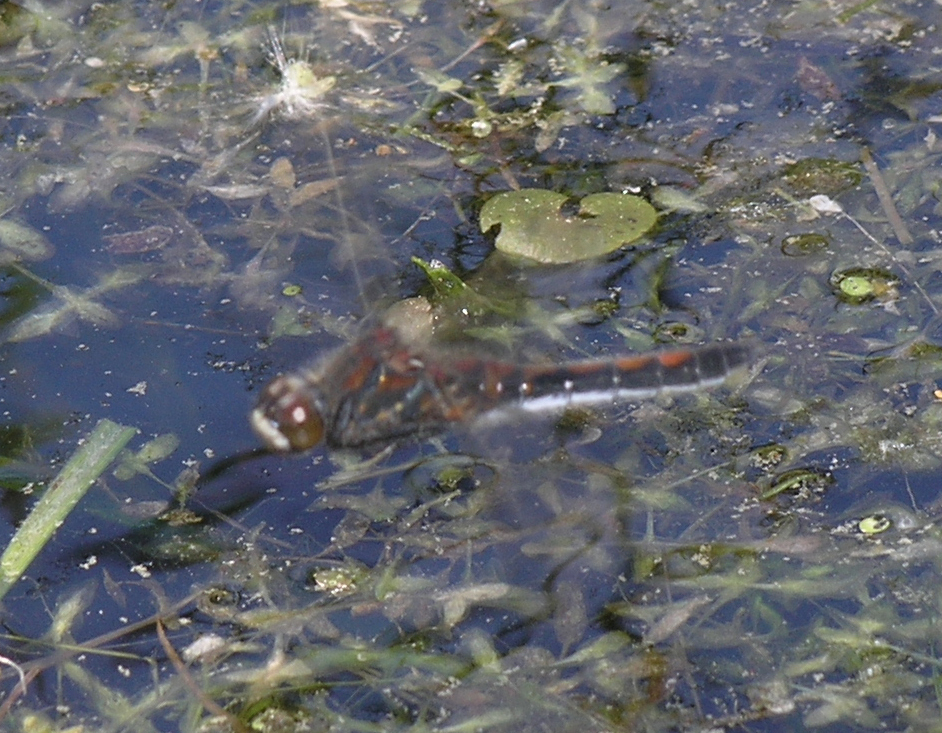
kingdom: Plantae
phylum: Tracheophyta
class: Liliopsida
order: Alismatales
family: Hydrocharitaceae
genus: Hydrocharis
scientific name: Hydrocharis morsus-ranae
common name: Frogbit
